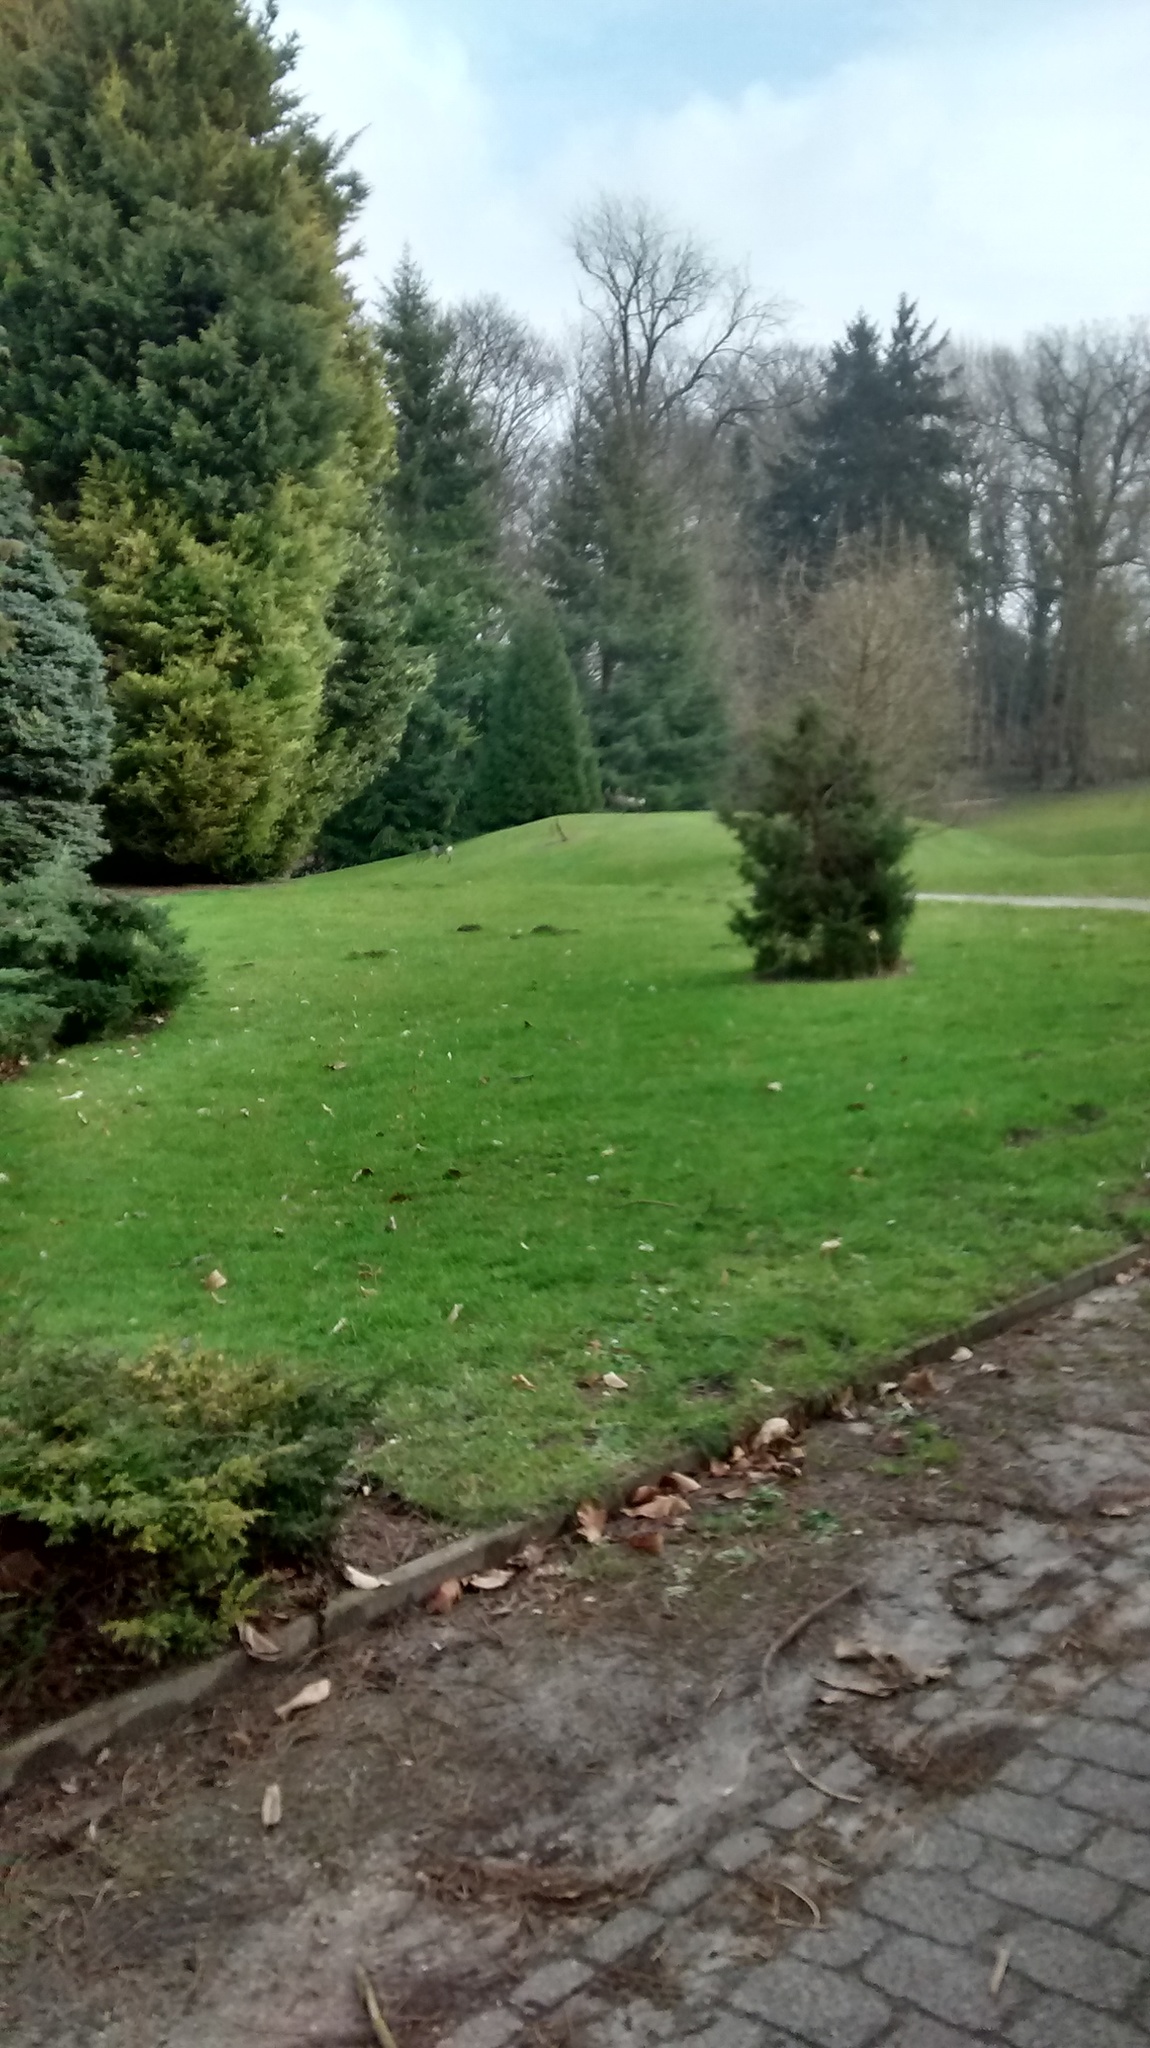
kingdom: Animalia
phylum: Chordata
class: Mammalia
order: Artiodactyla
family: Cervidae
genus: Capreolus
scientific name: Capreolus capreolus
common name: Western roe deer
